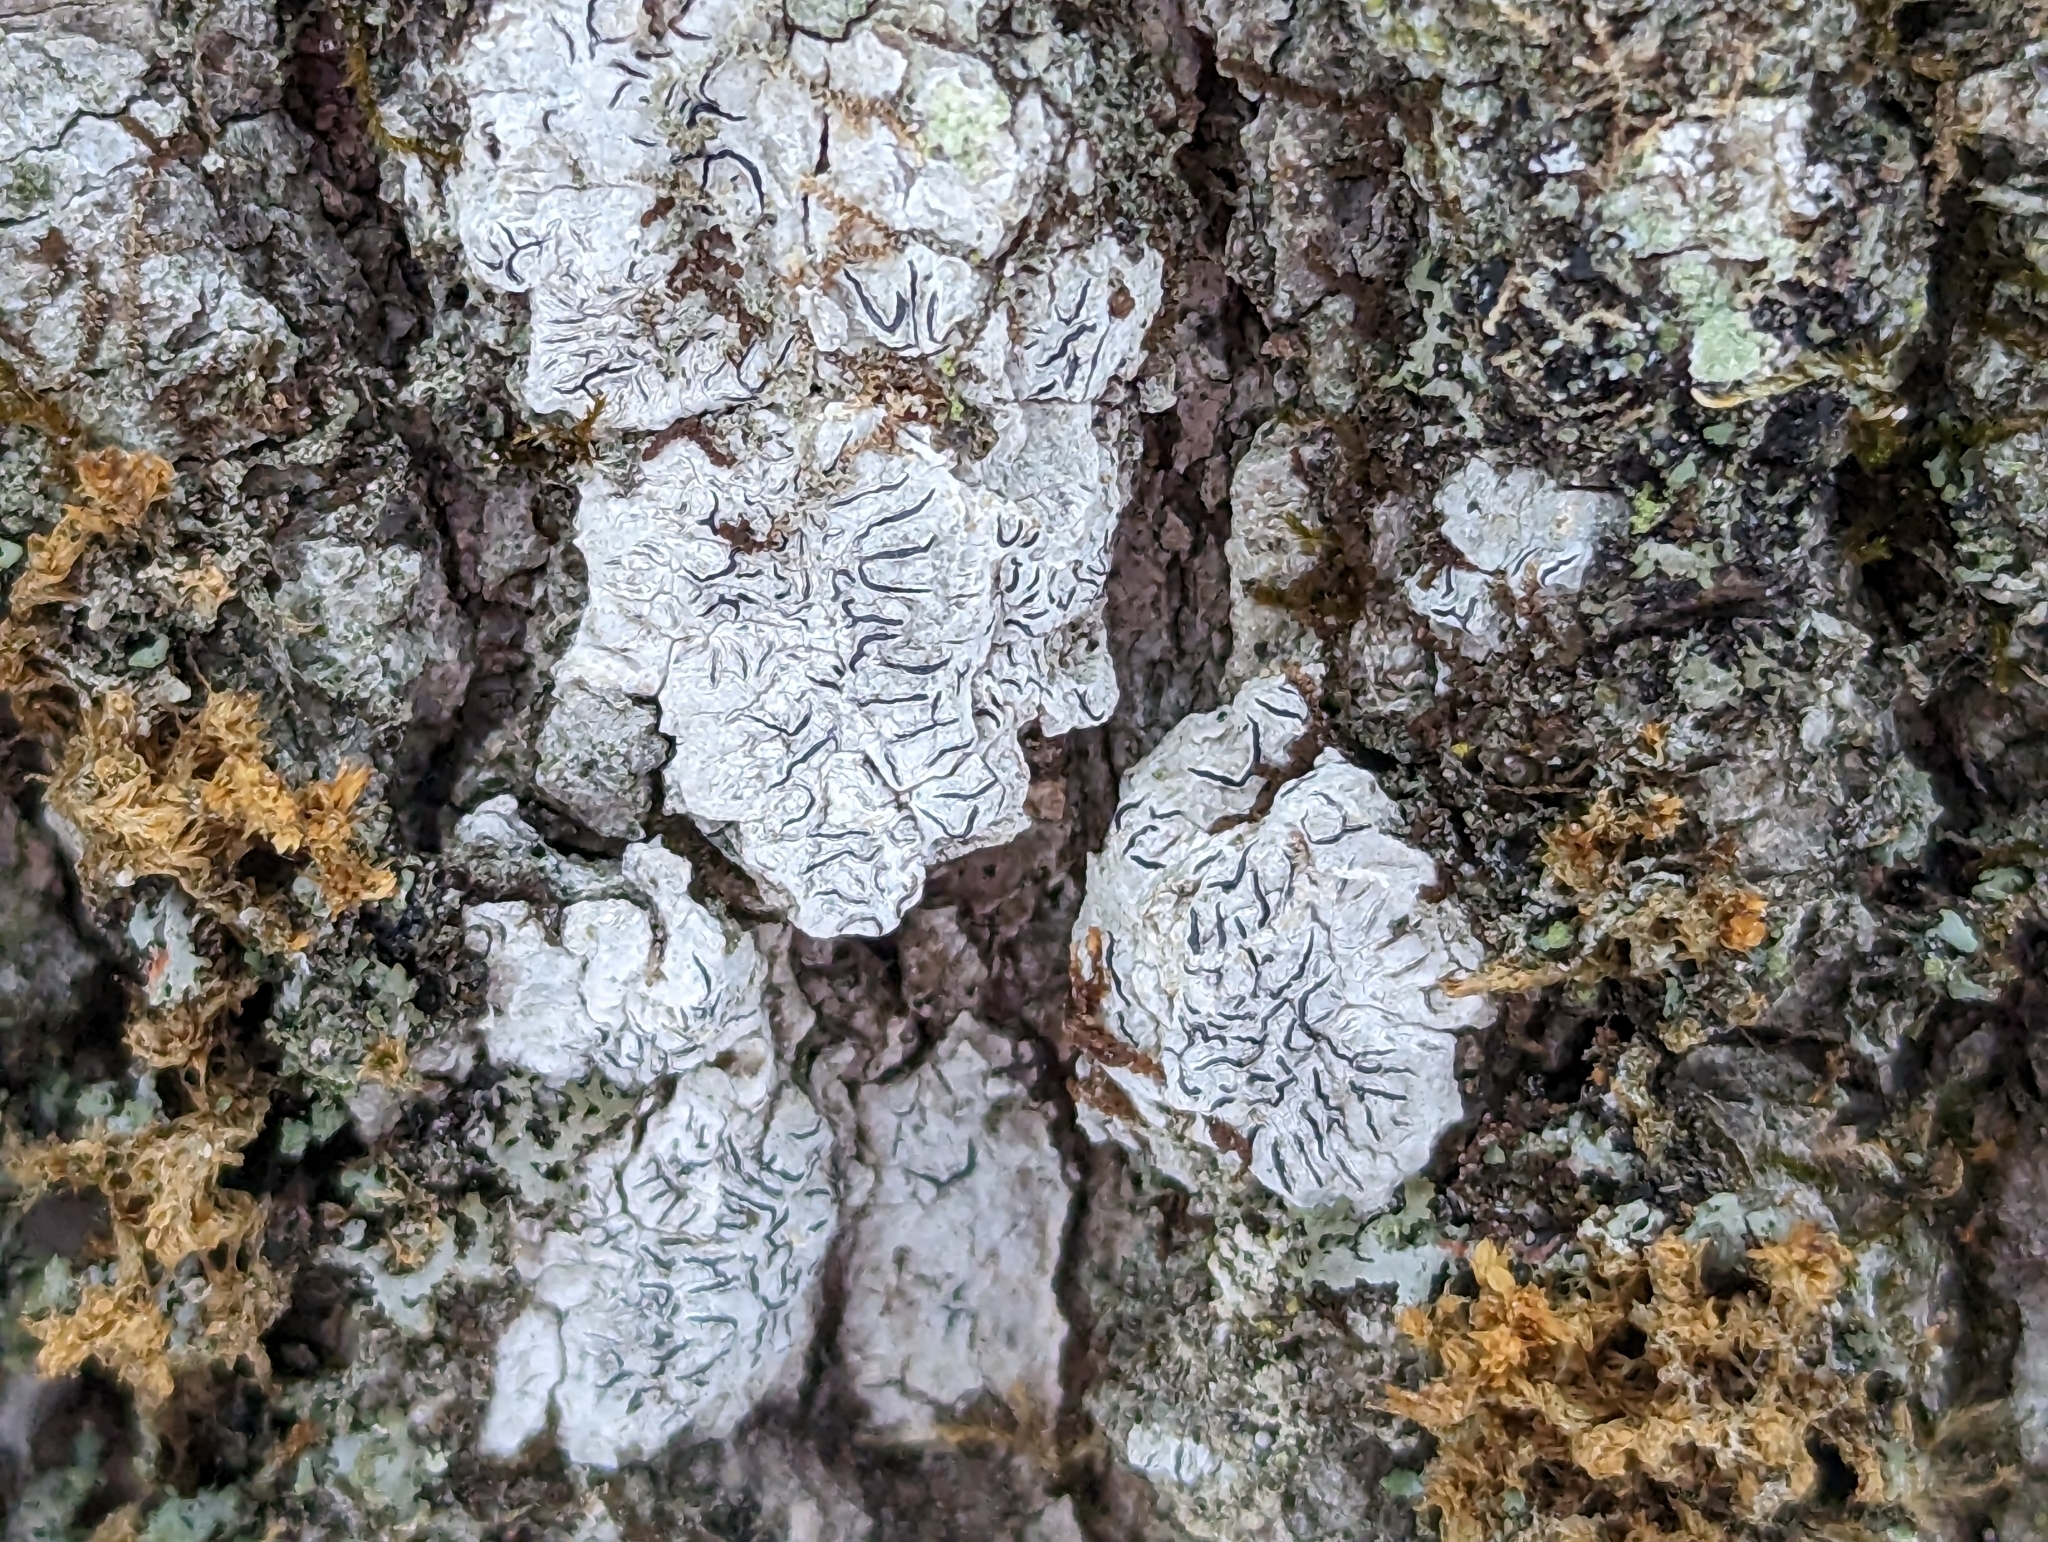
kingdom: Fungi
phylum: Ascomycota
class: Lecanoromycetes
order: Ostropales
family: Graphidaceae
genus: Graphis
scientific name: Graphis scripta
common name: Script lichen
